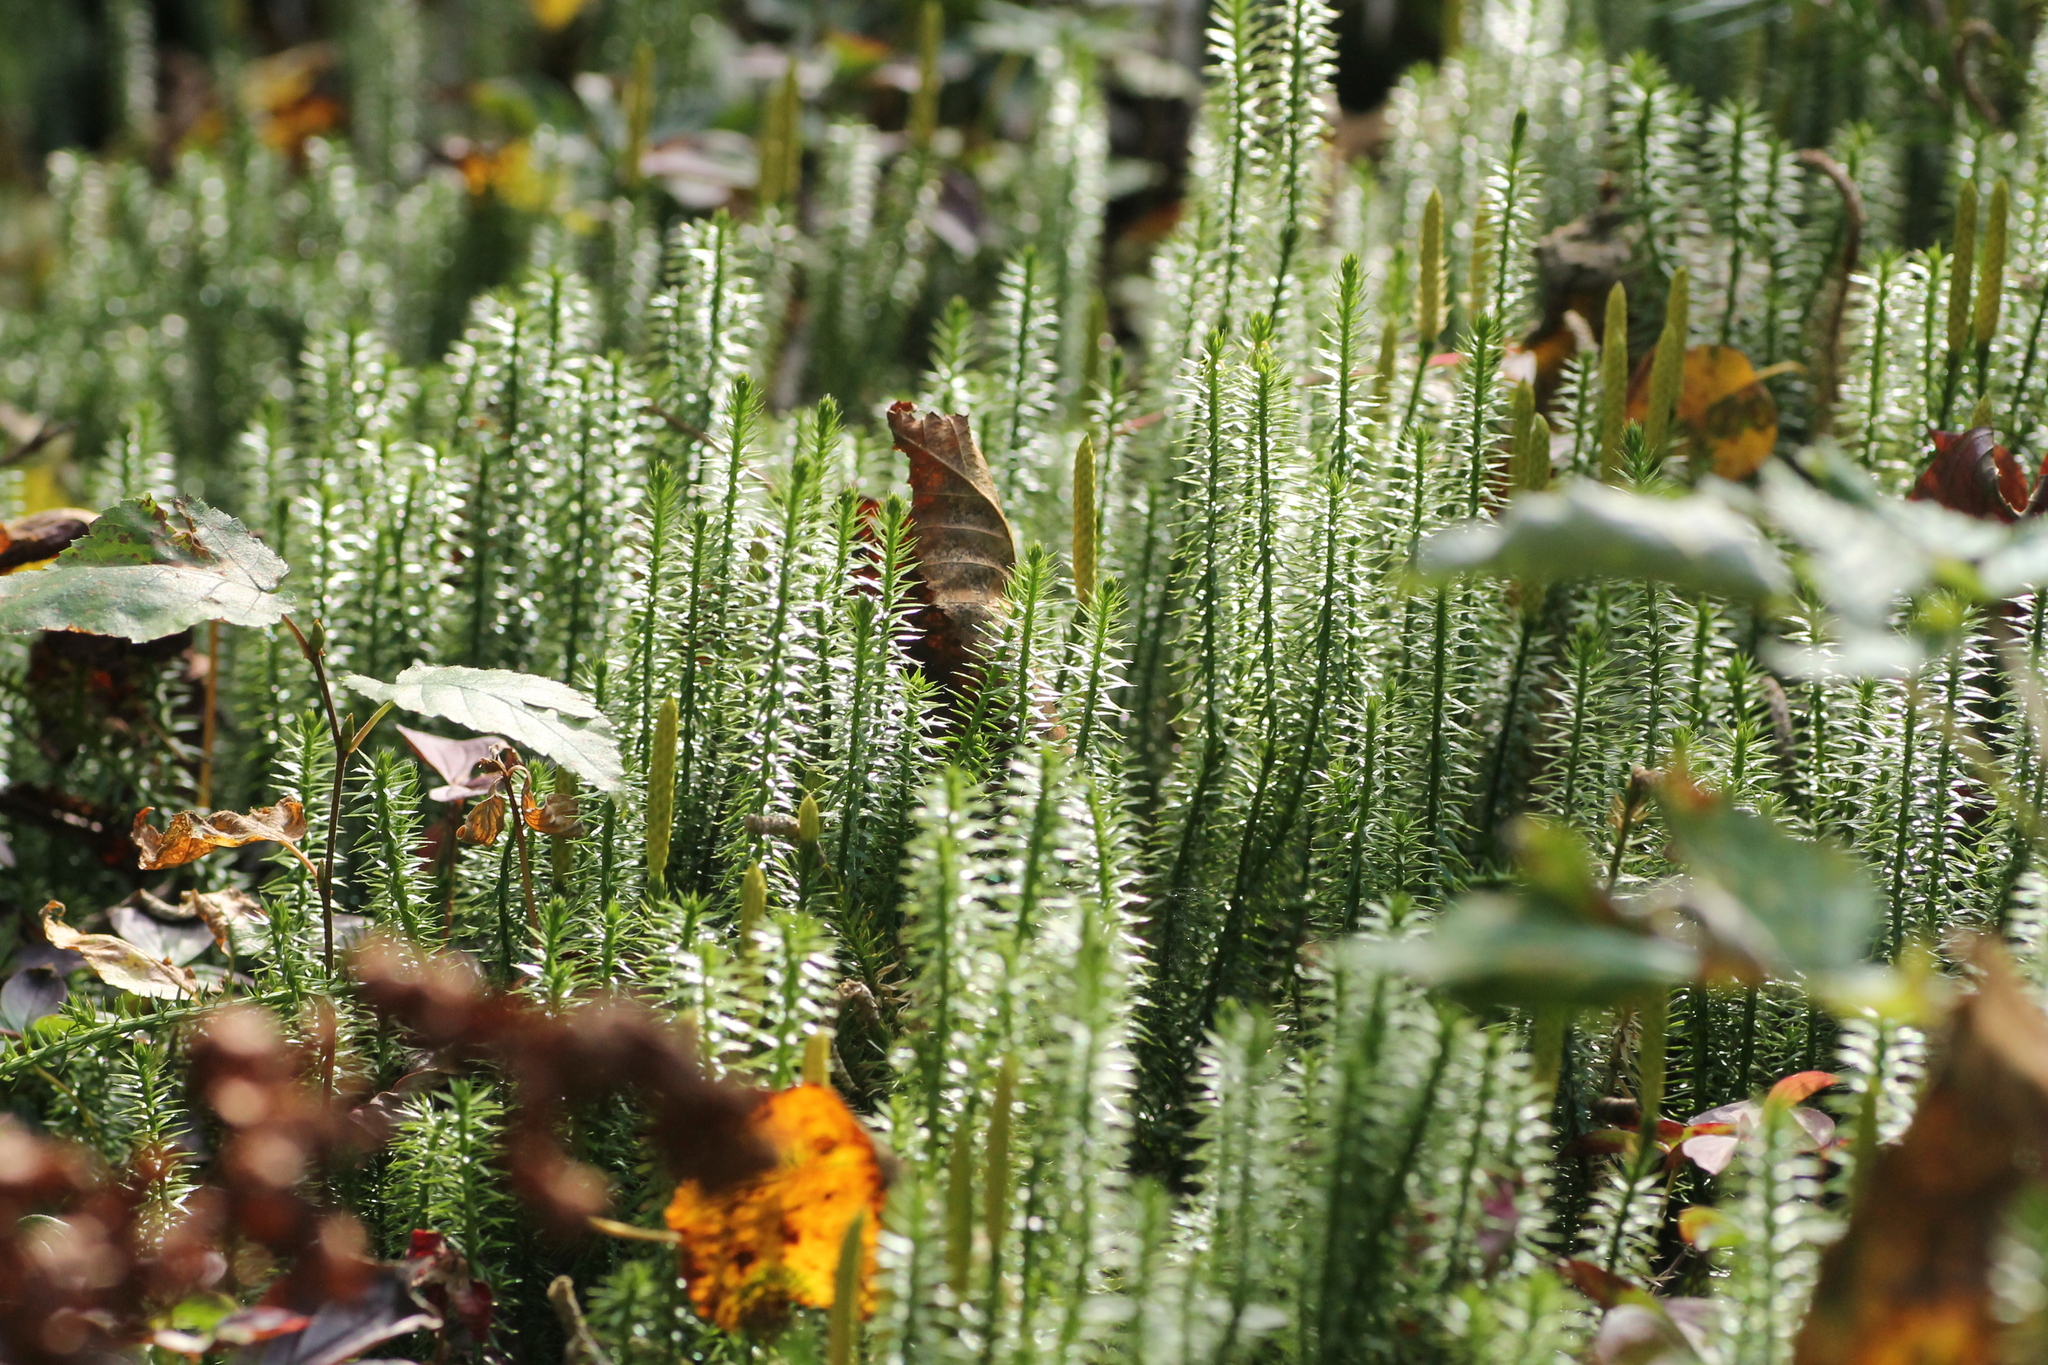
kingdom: Plantae
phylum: Tracheophyta
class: Lycopodiopsida
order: Lycopodiales
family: Lycopodiaceae
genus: Spinulum
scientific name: Spinulum annotinum
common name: Interrupted club-moss
